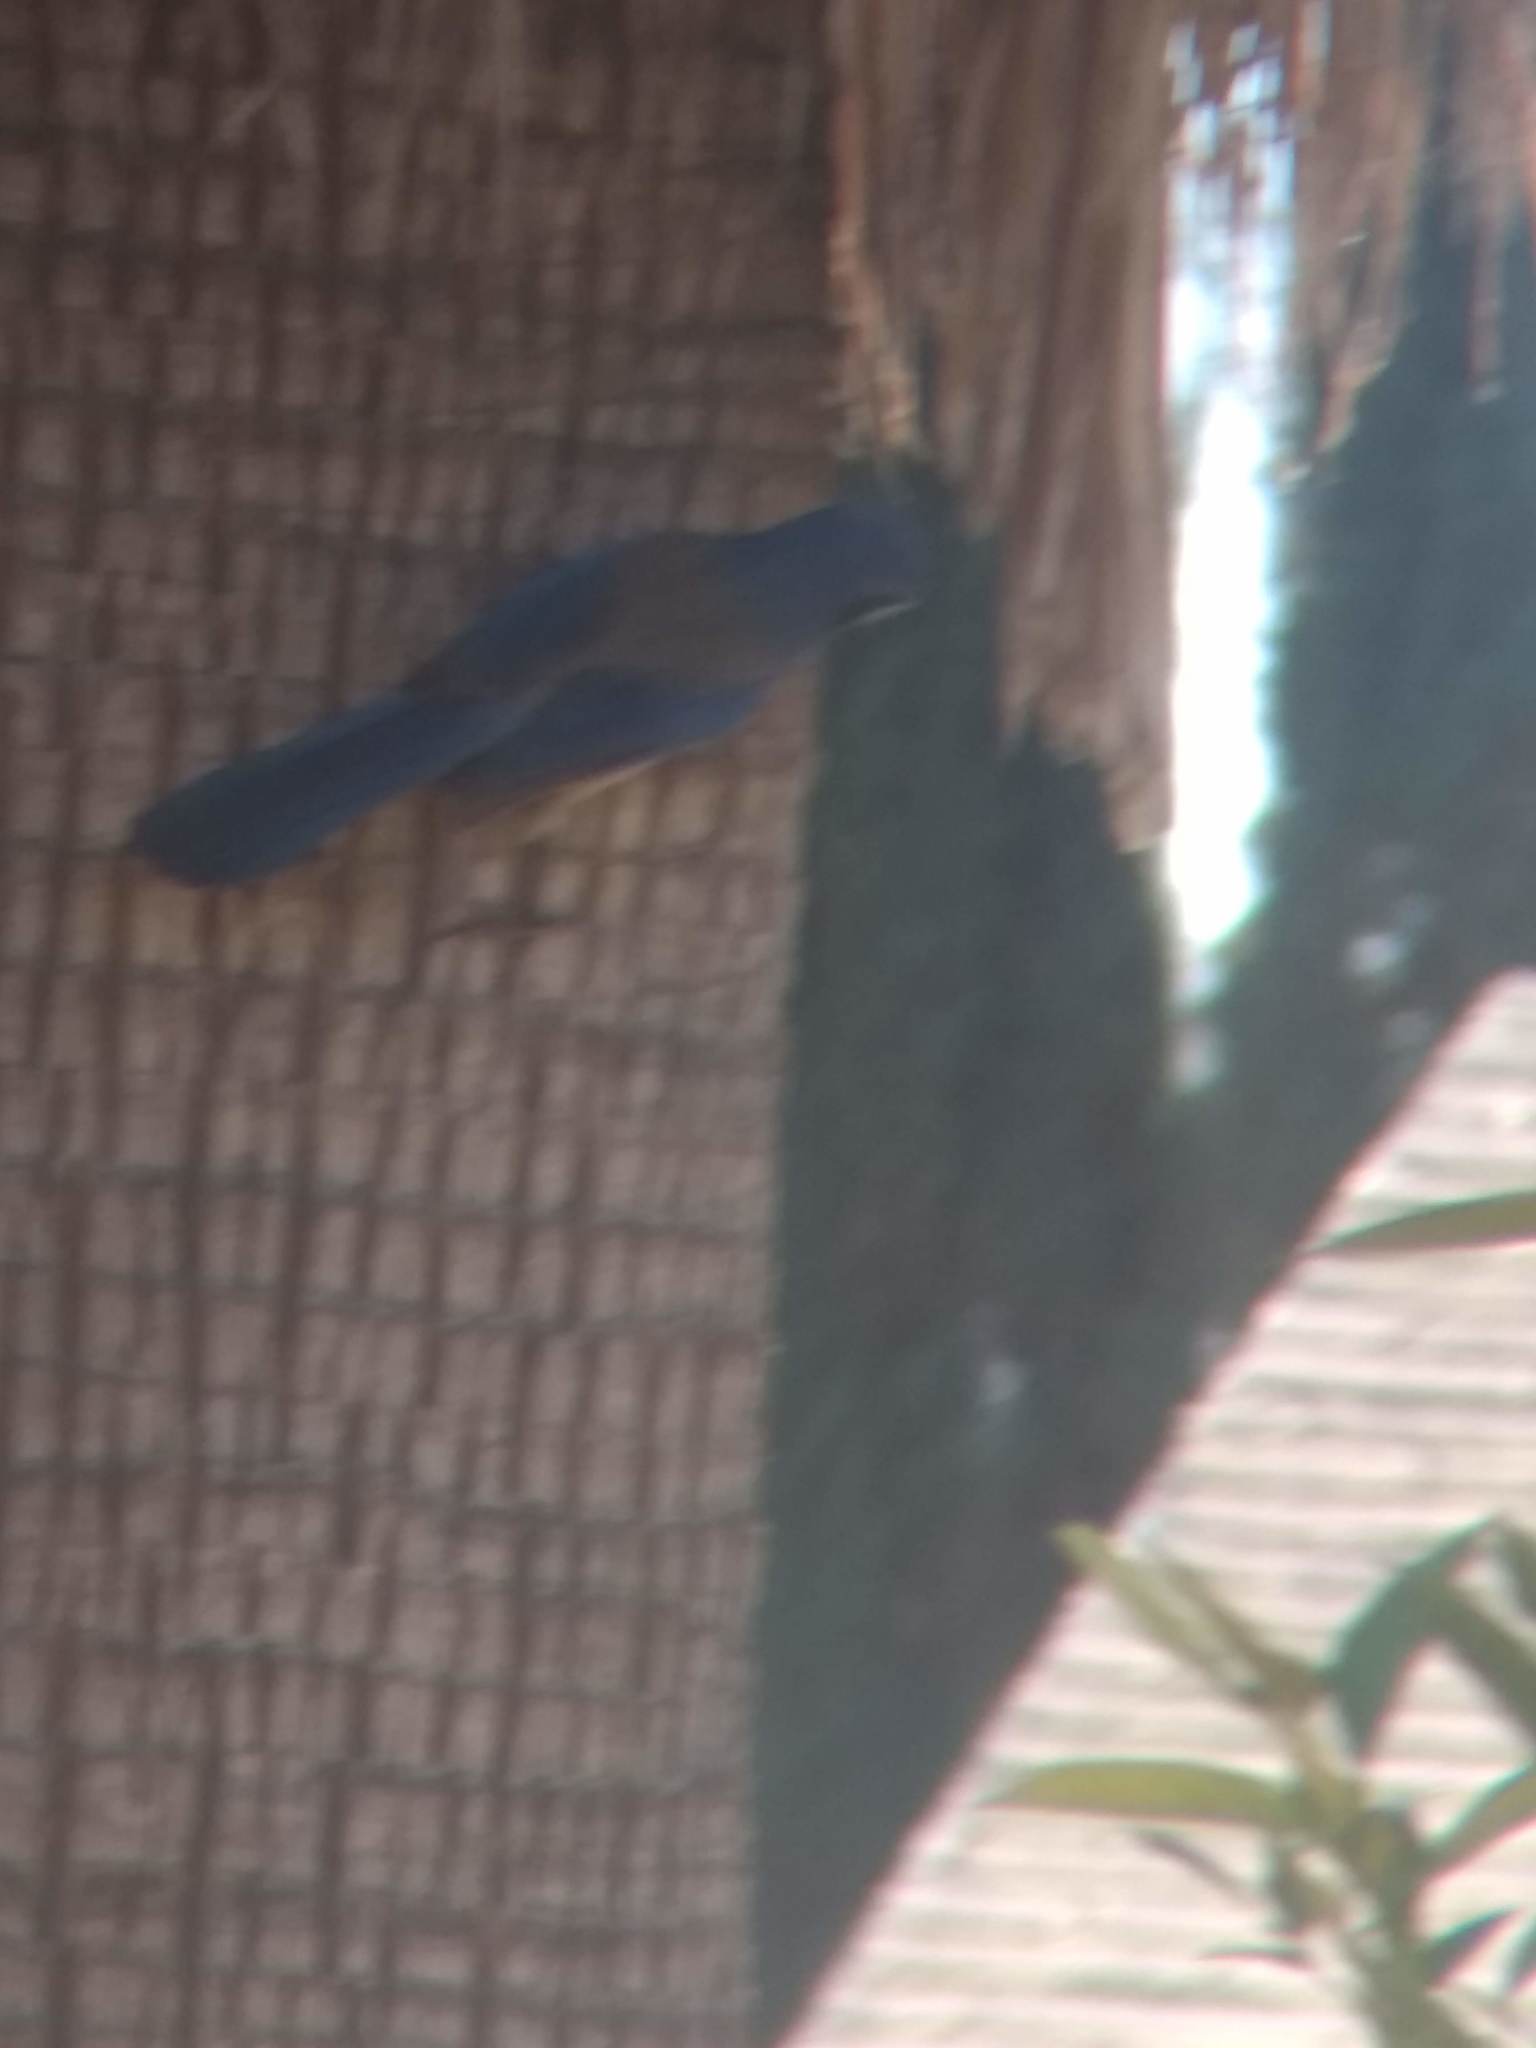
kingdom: Animalia
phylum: Chordata
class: Aves
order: Passeriformes
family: Corvidae
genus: Aphelocoma
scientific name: Aphelocoma californica
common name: California scrub-jay
